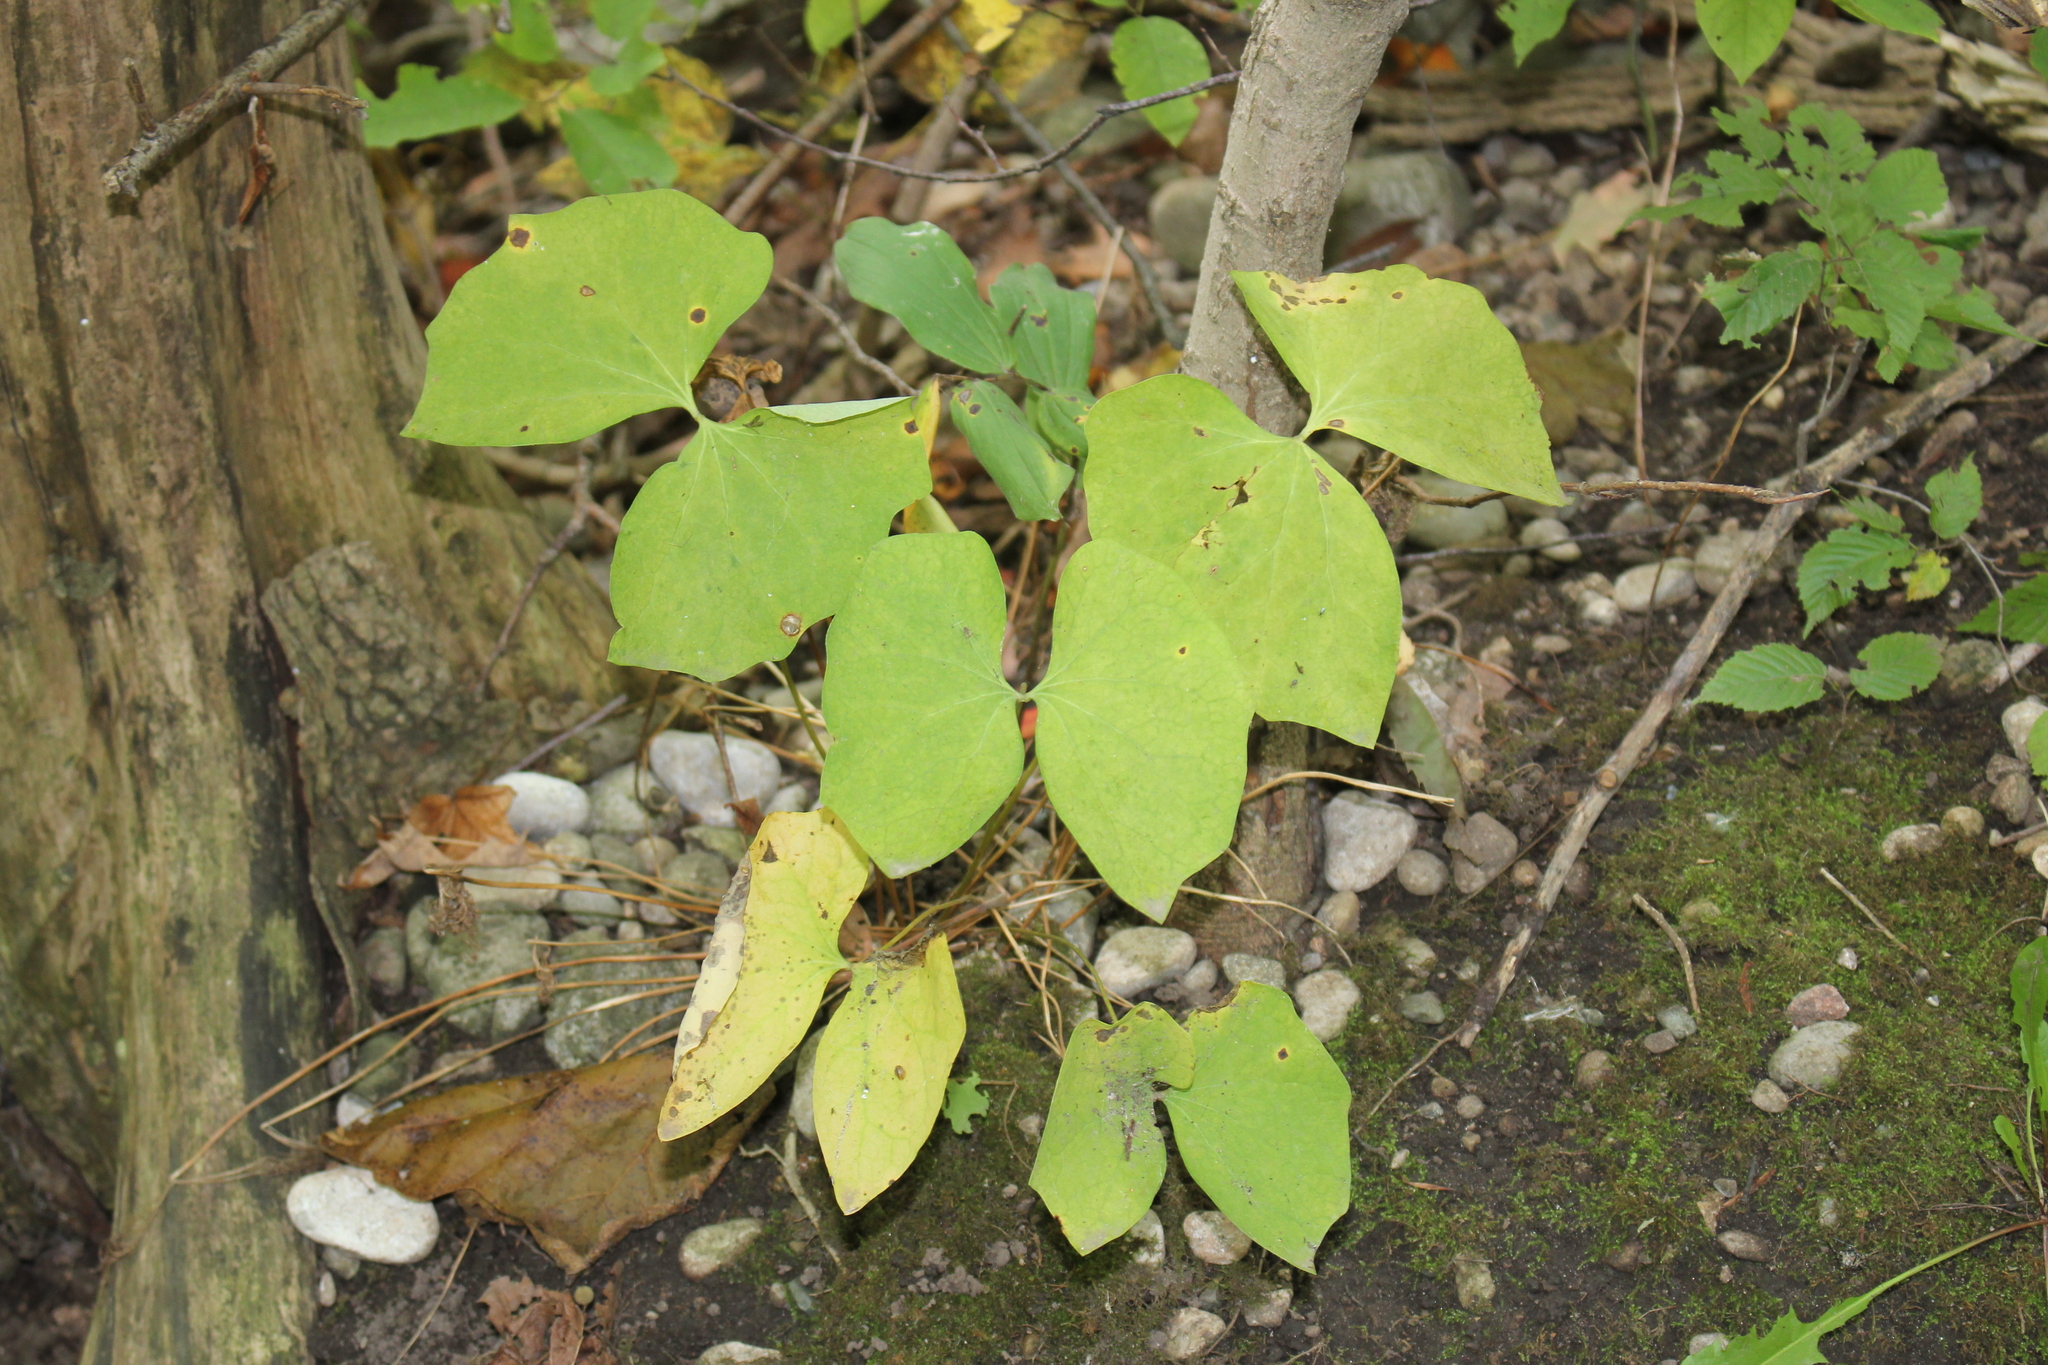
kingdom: Plantae
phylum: Tracheophyta
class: Magnoliopsida
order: Ranunculales
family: Berberidaceae
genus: Jeffersonia
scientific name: Jeffersonia diphylla
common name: Rheumatism-root
